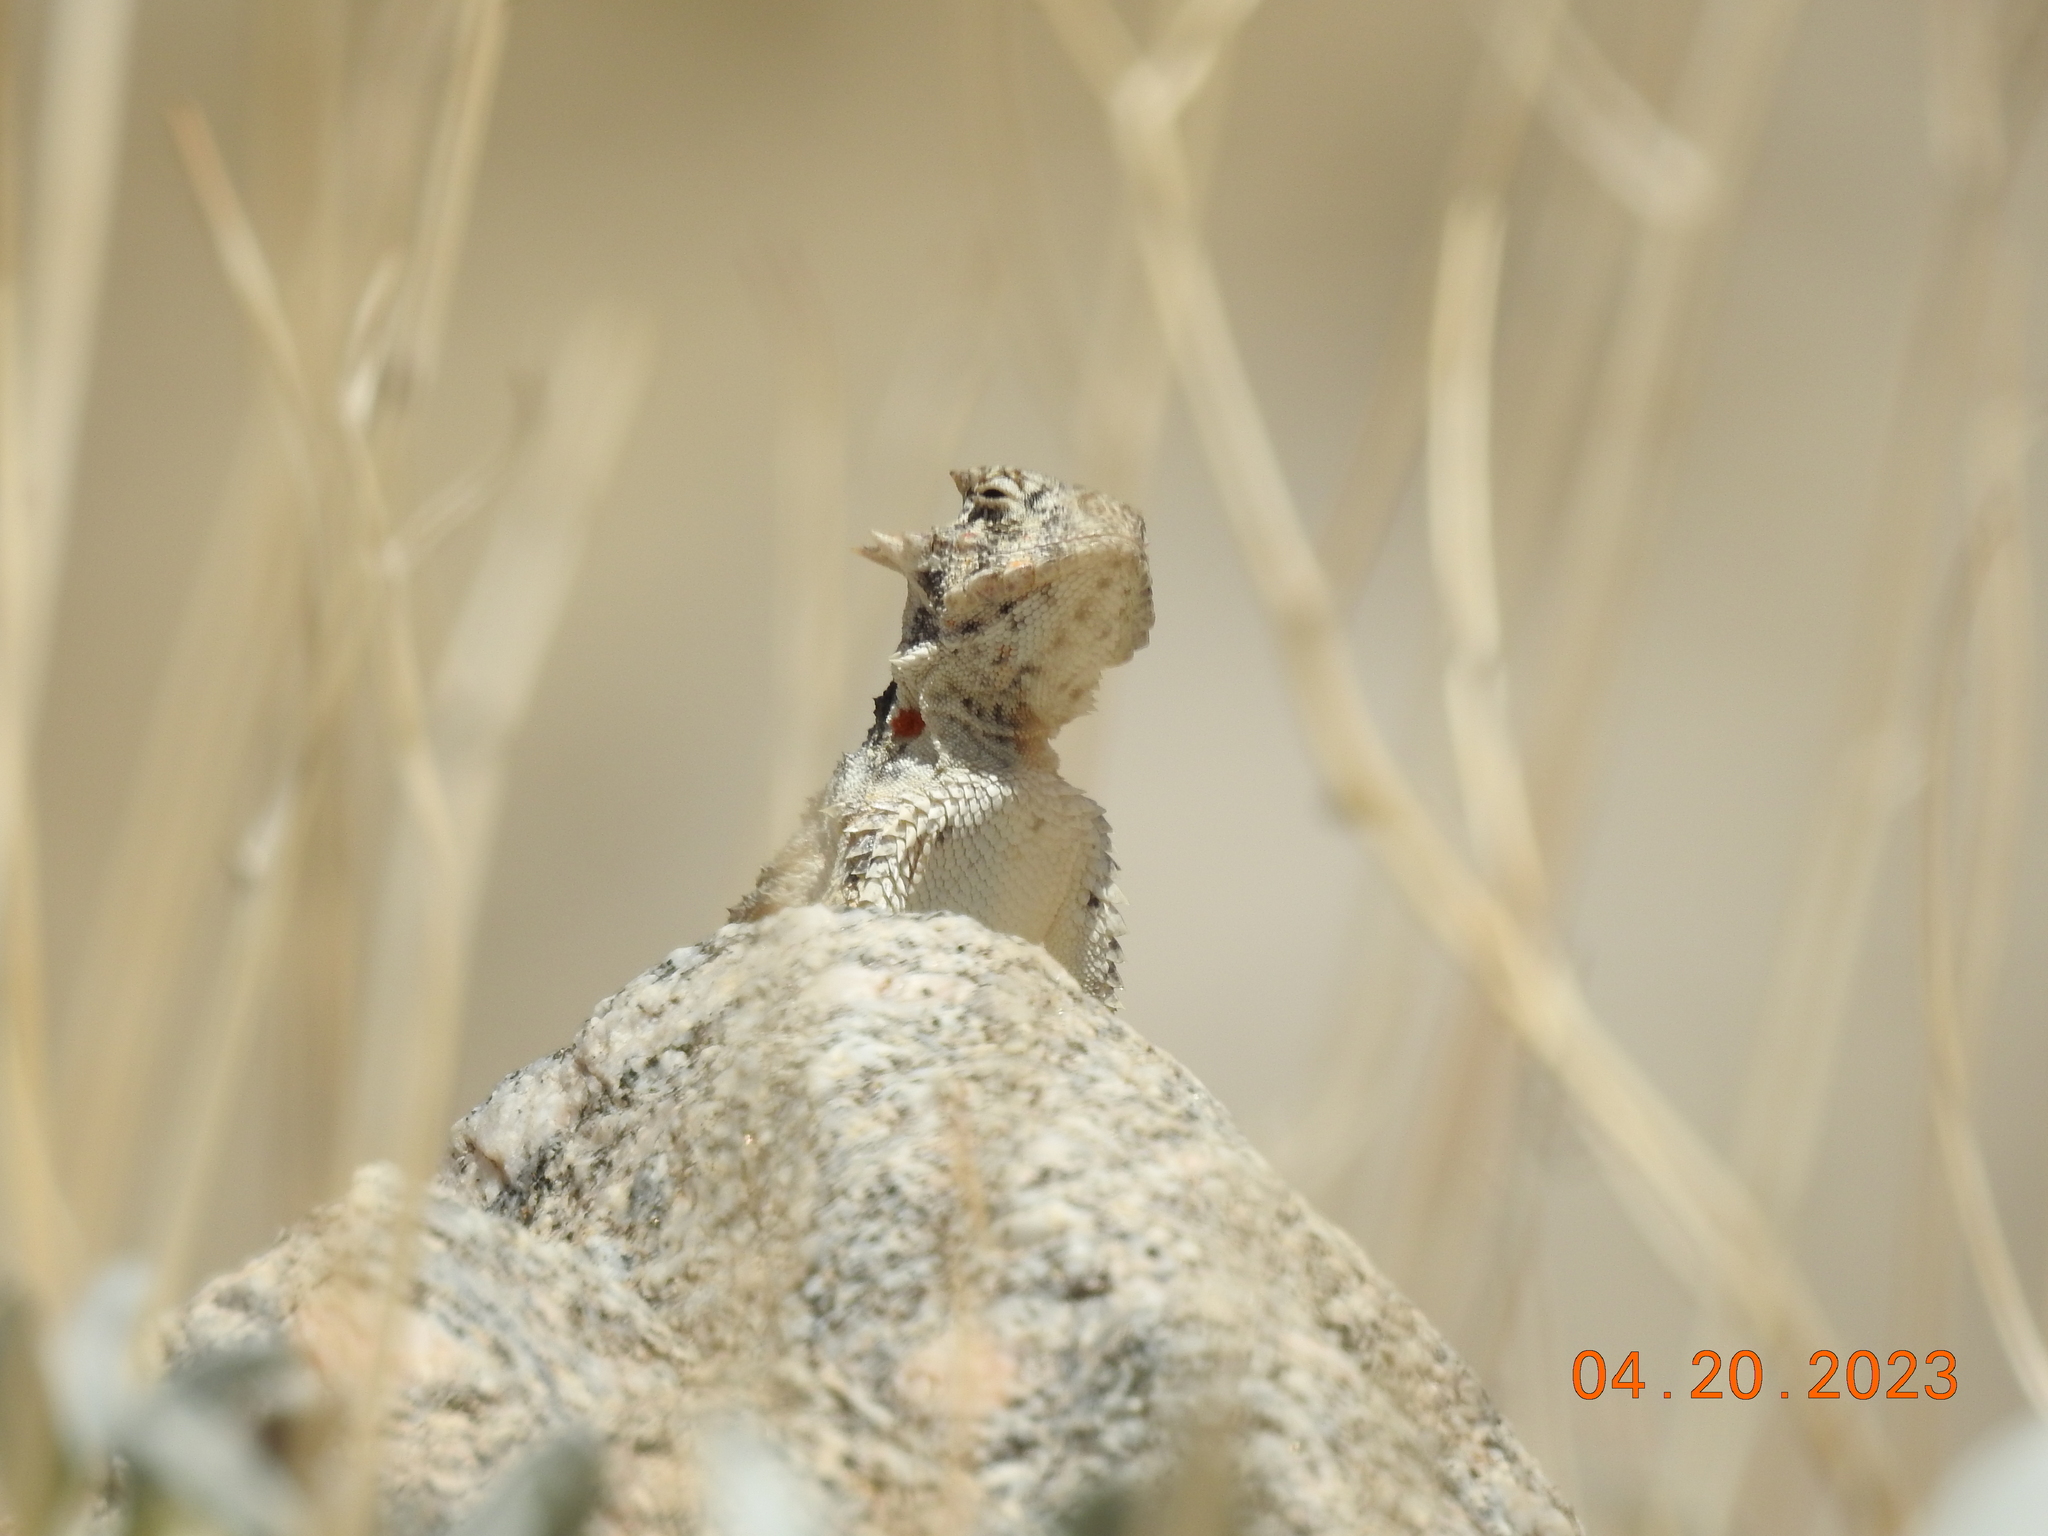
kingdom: Animalia
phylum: Chordata
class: Squamata
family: Phrynosomatidae
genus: Phrynosoma
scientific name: Phrynosoma platyrhinos
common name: Desert horned lizard
